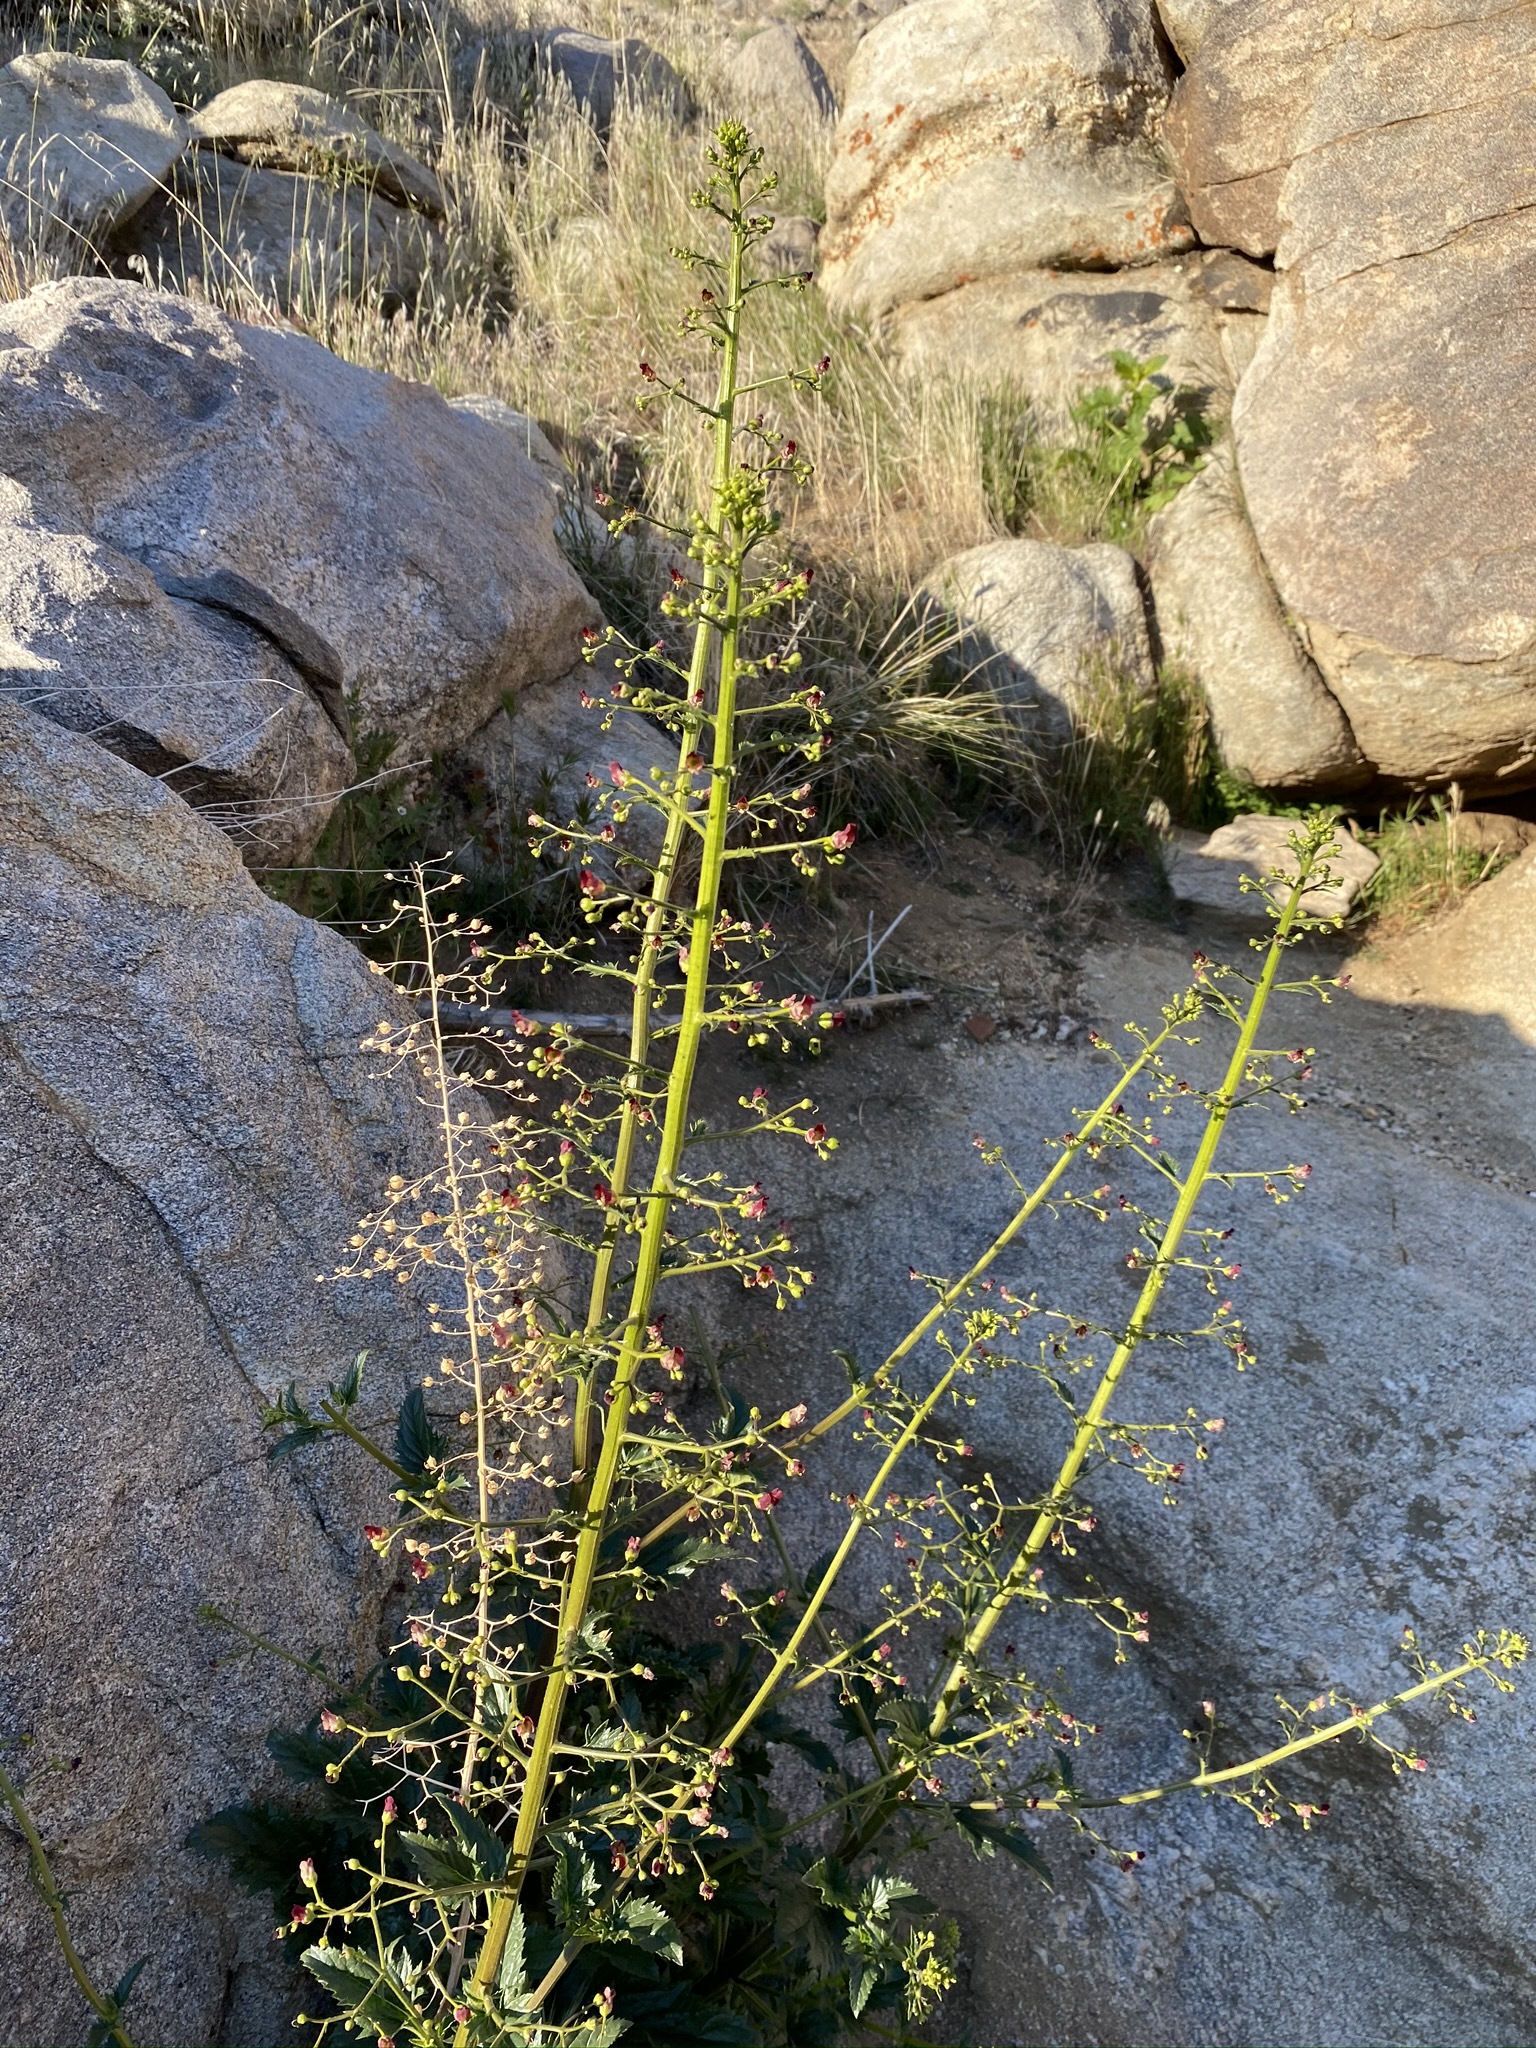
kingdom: Plantae
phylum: Tracheophyta
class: Magnoliopsida
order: Lamiales
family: Scrophulariaceae
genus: Scrophularia
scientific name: Scrophularia californica
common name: California figwort
